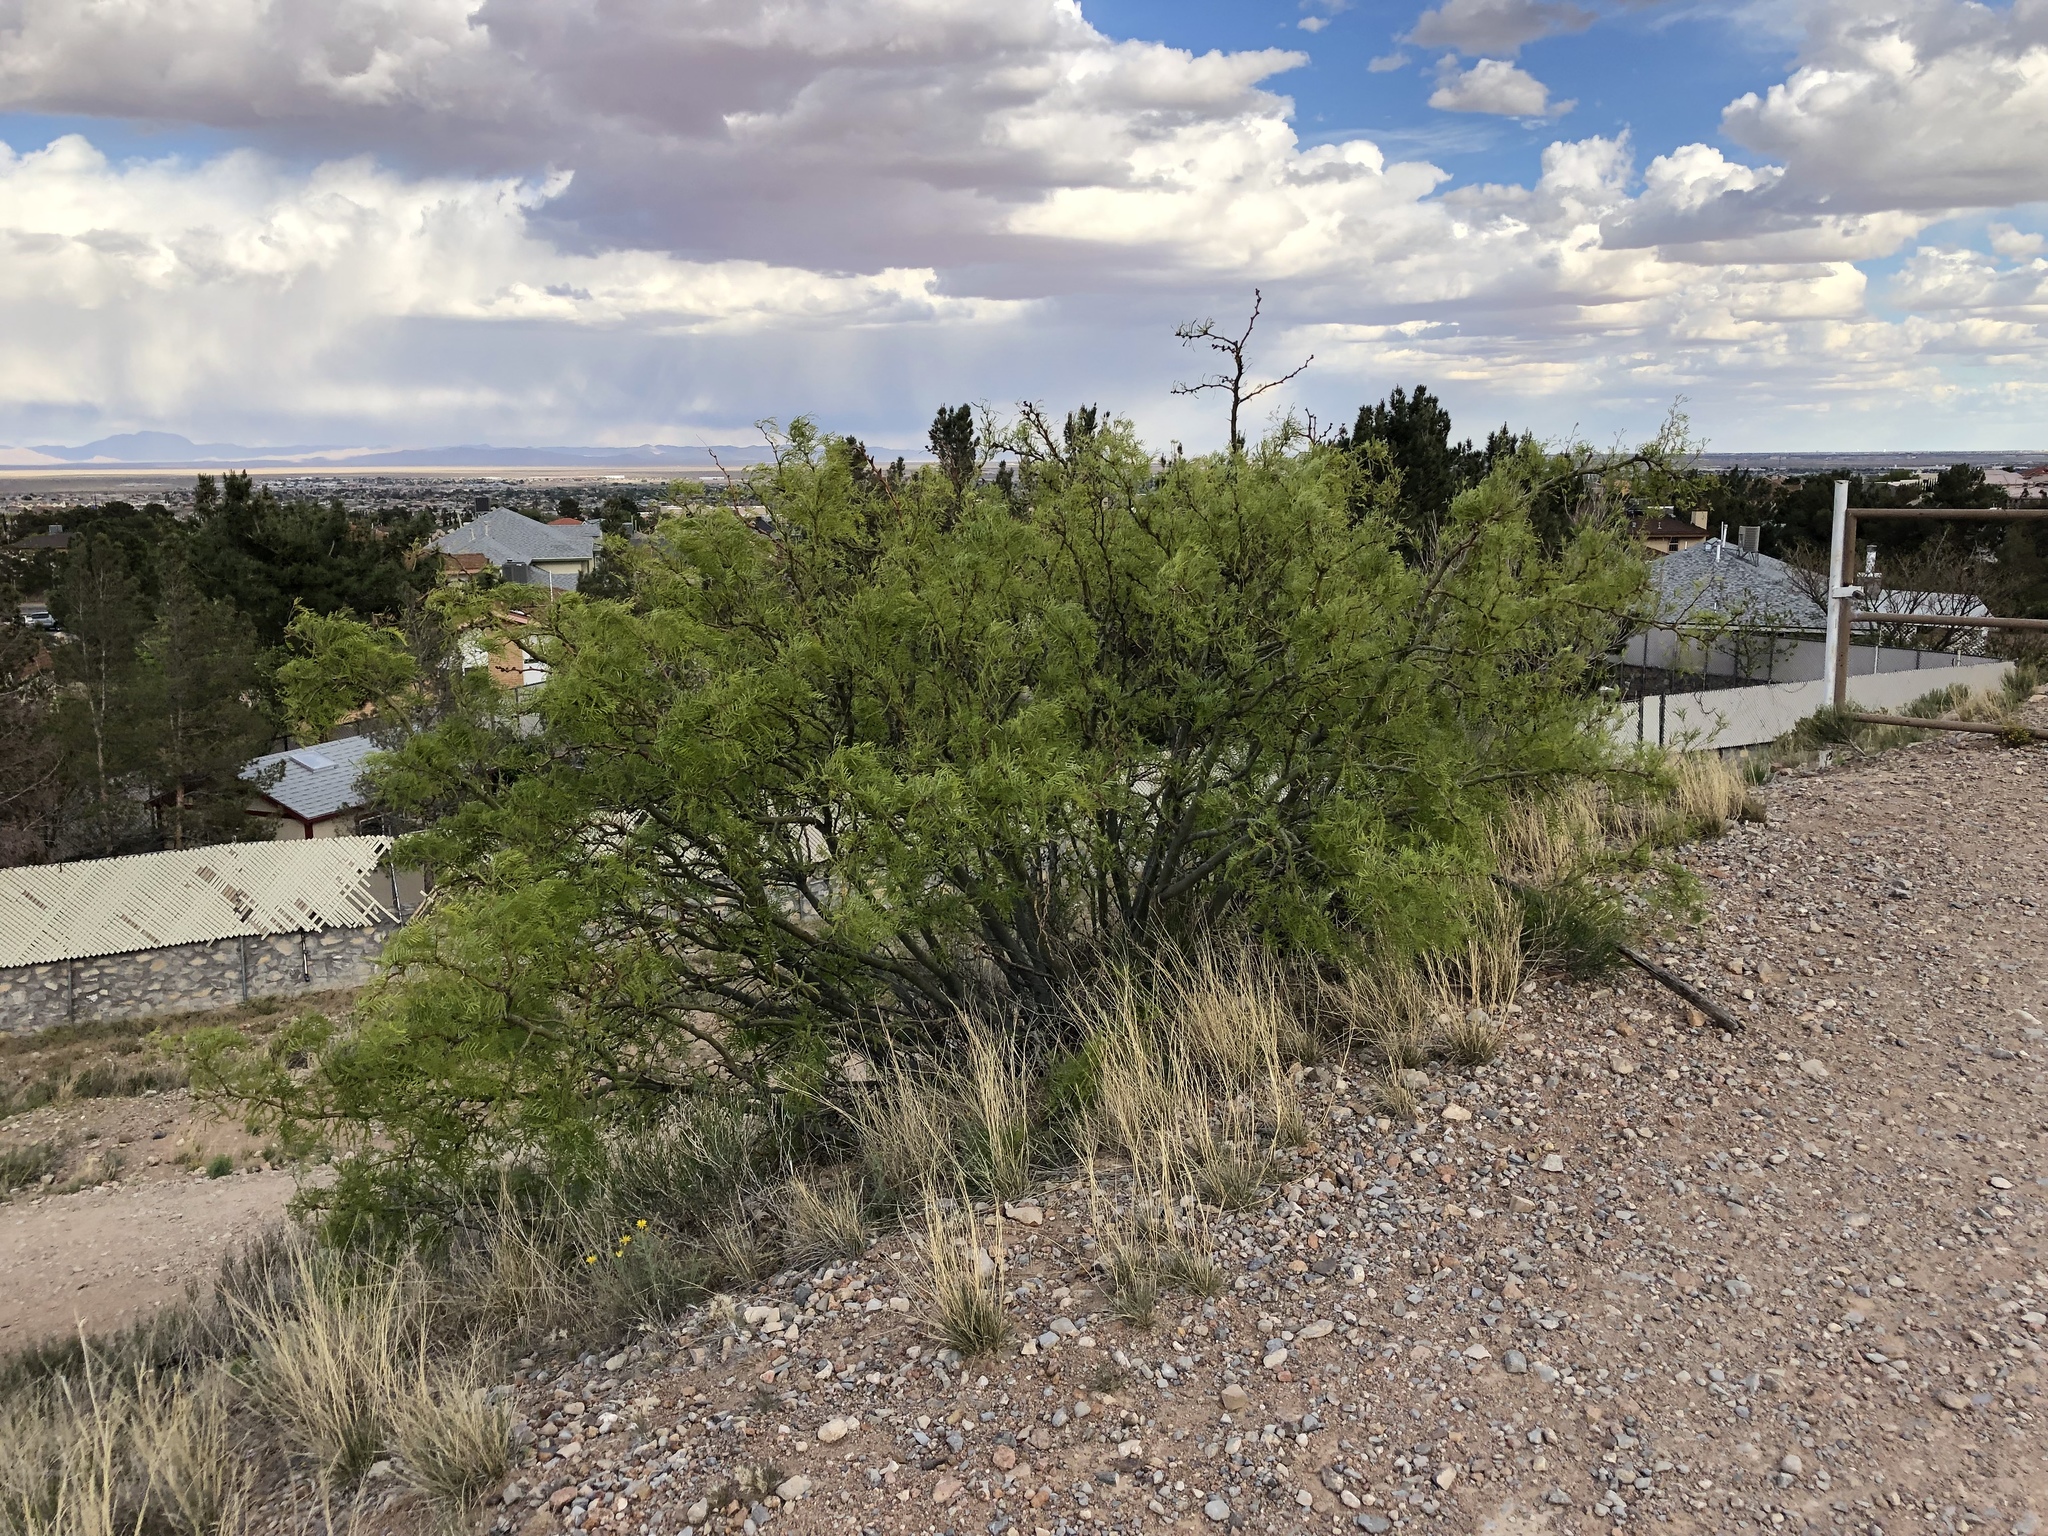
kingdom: Plantae
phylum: Tracheophyta
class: Magnoliopsida
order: Fabales
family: Fabaceae
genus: Prosopis
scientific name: Prosopis glandulosa
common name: Honey mesquite
